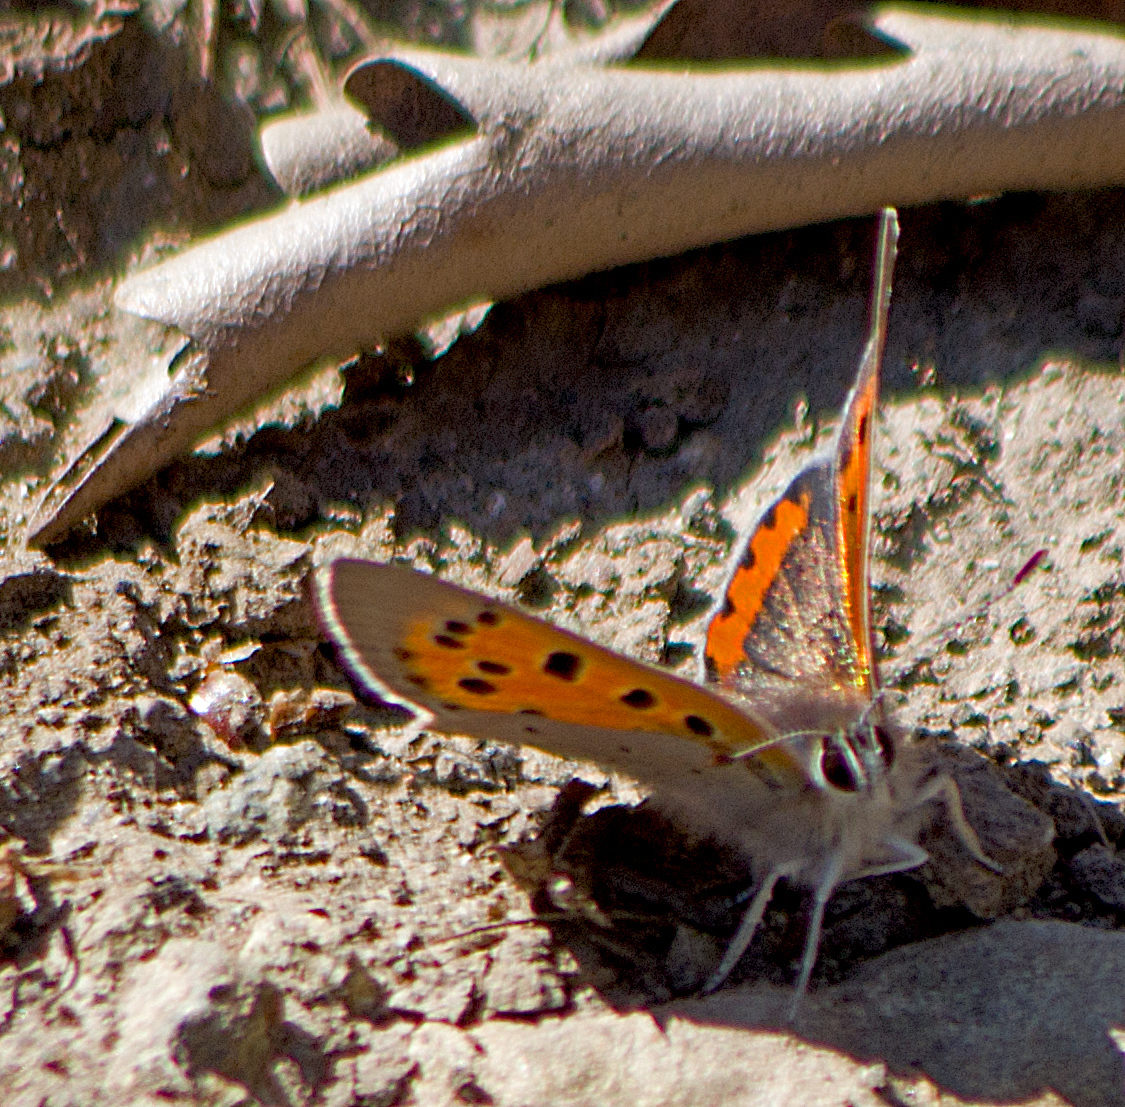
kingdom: Animalia
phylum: Arthropoda
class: Insecta
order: Lepidoptera
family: Lycaenidae
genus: Lycaena
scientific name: Lycaena phlaeas
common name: Small copper
